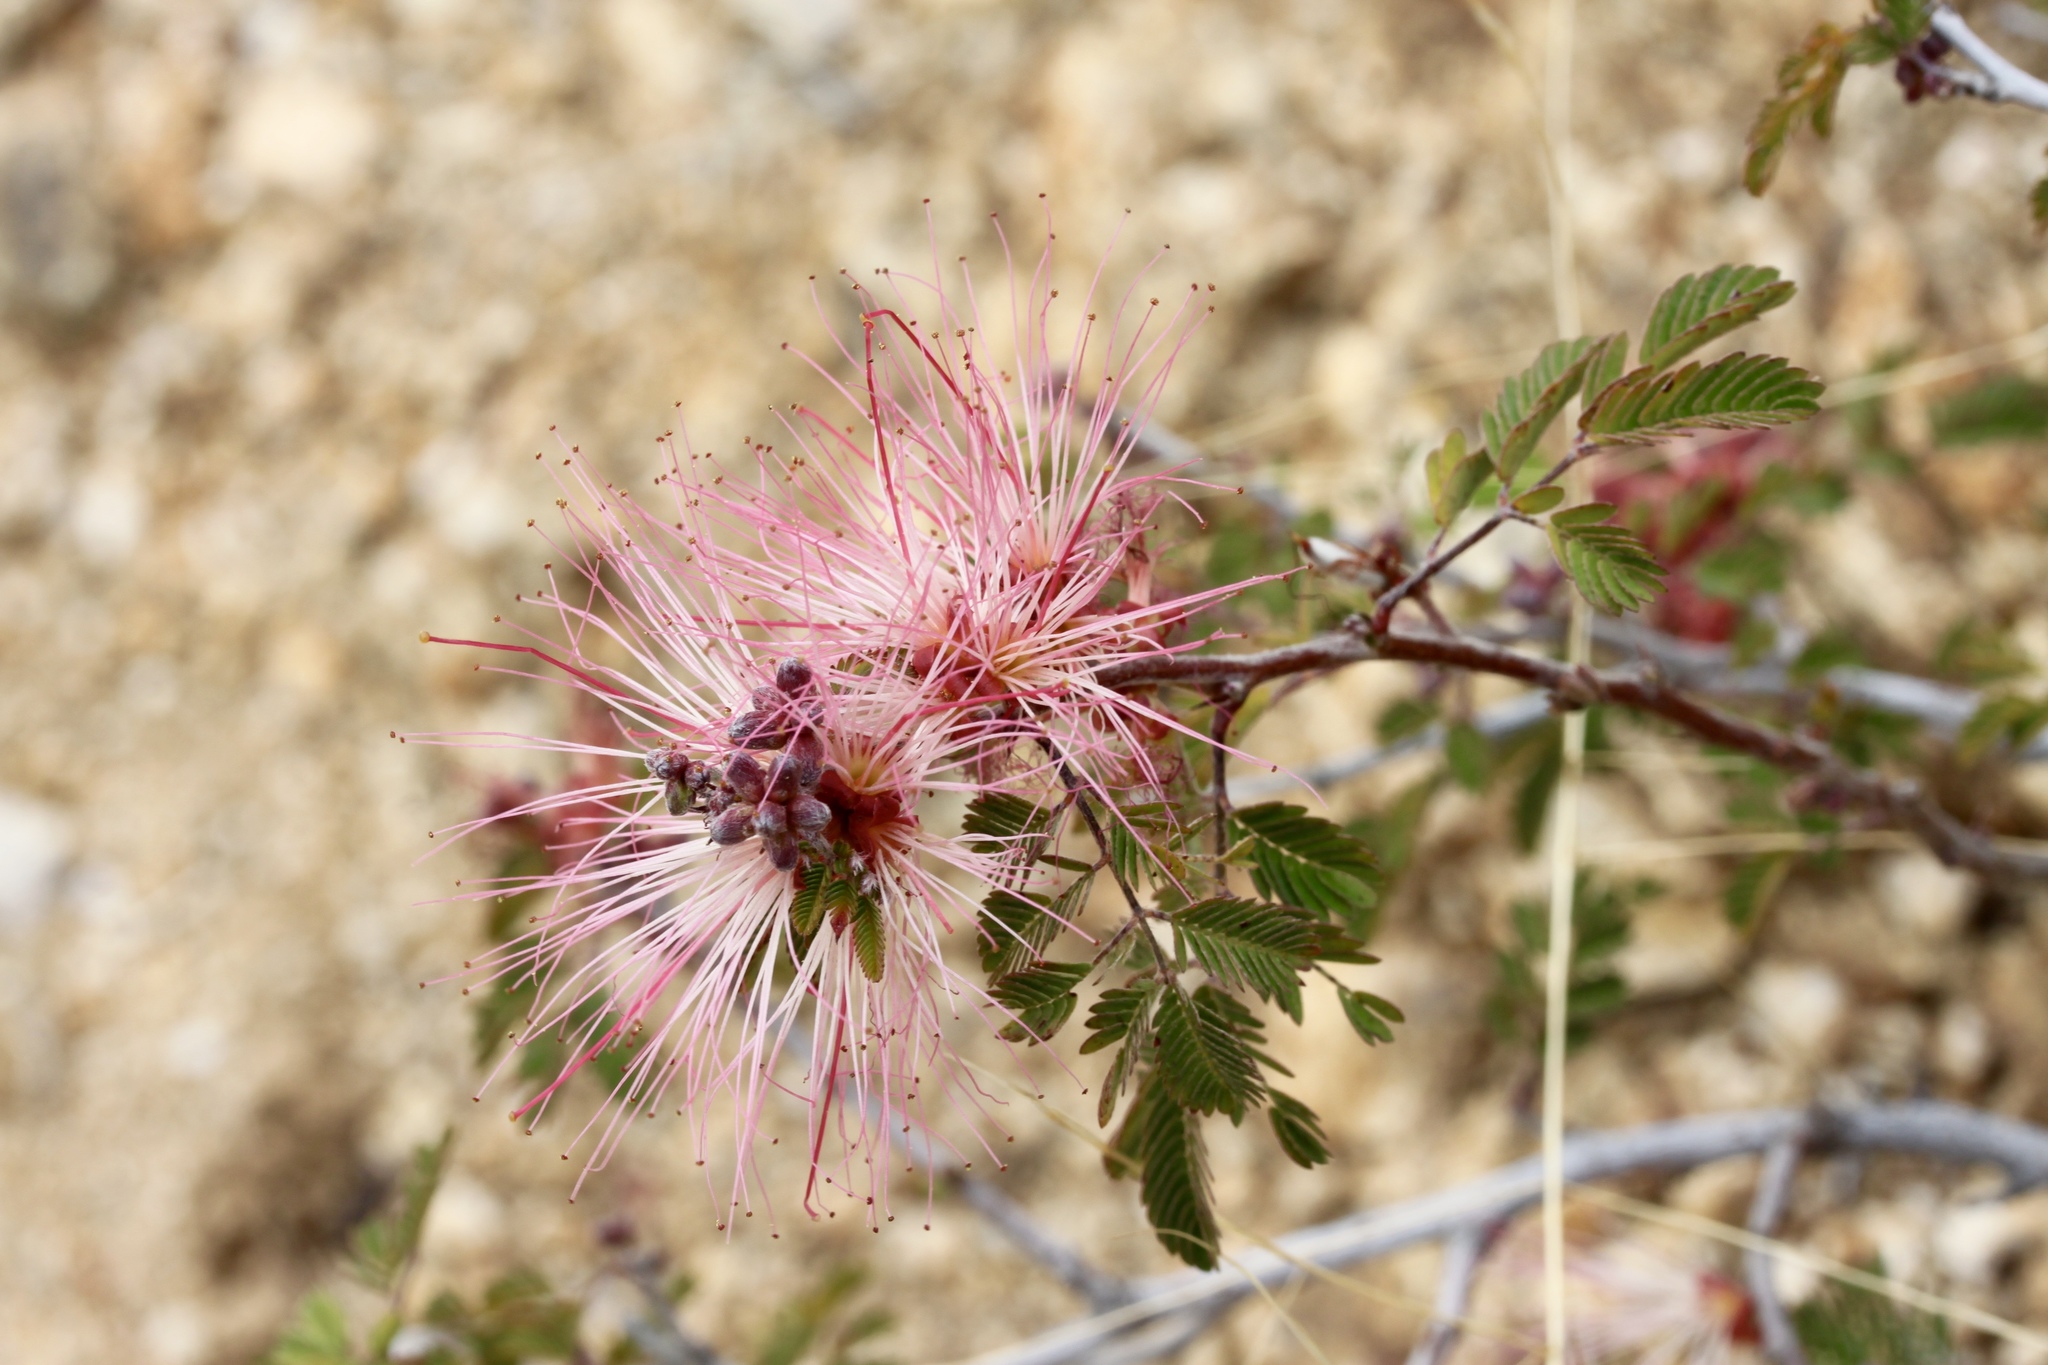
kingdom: Plantae
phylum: Tracheophyta
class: Magnoliopsida
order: Fabales
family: Fabaceae
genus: Calliandra
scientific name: Calliandra eriophylla
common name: Fairy-duster
